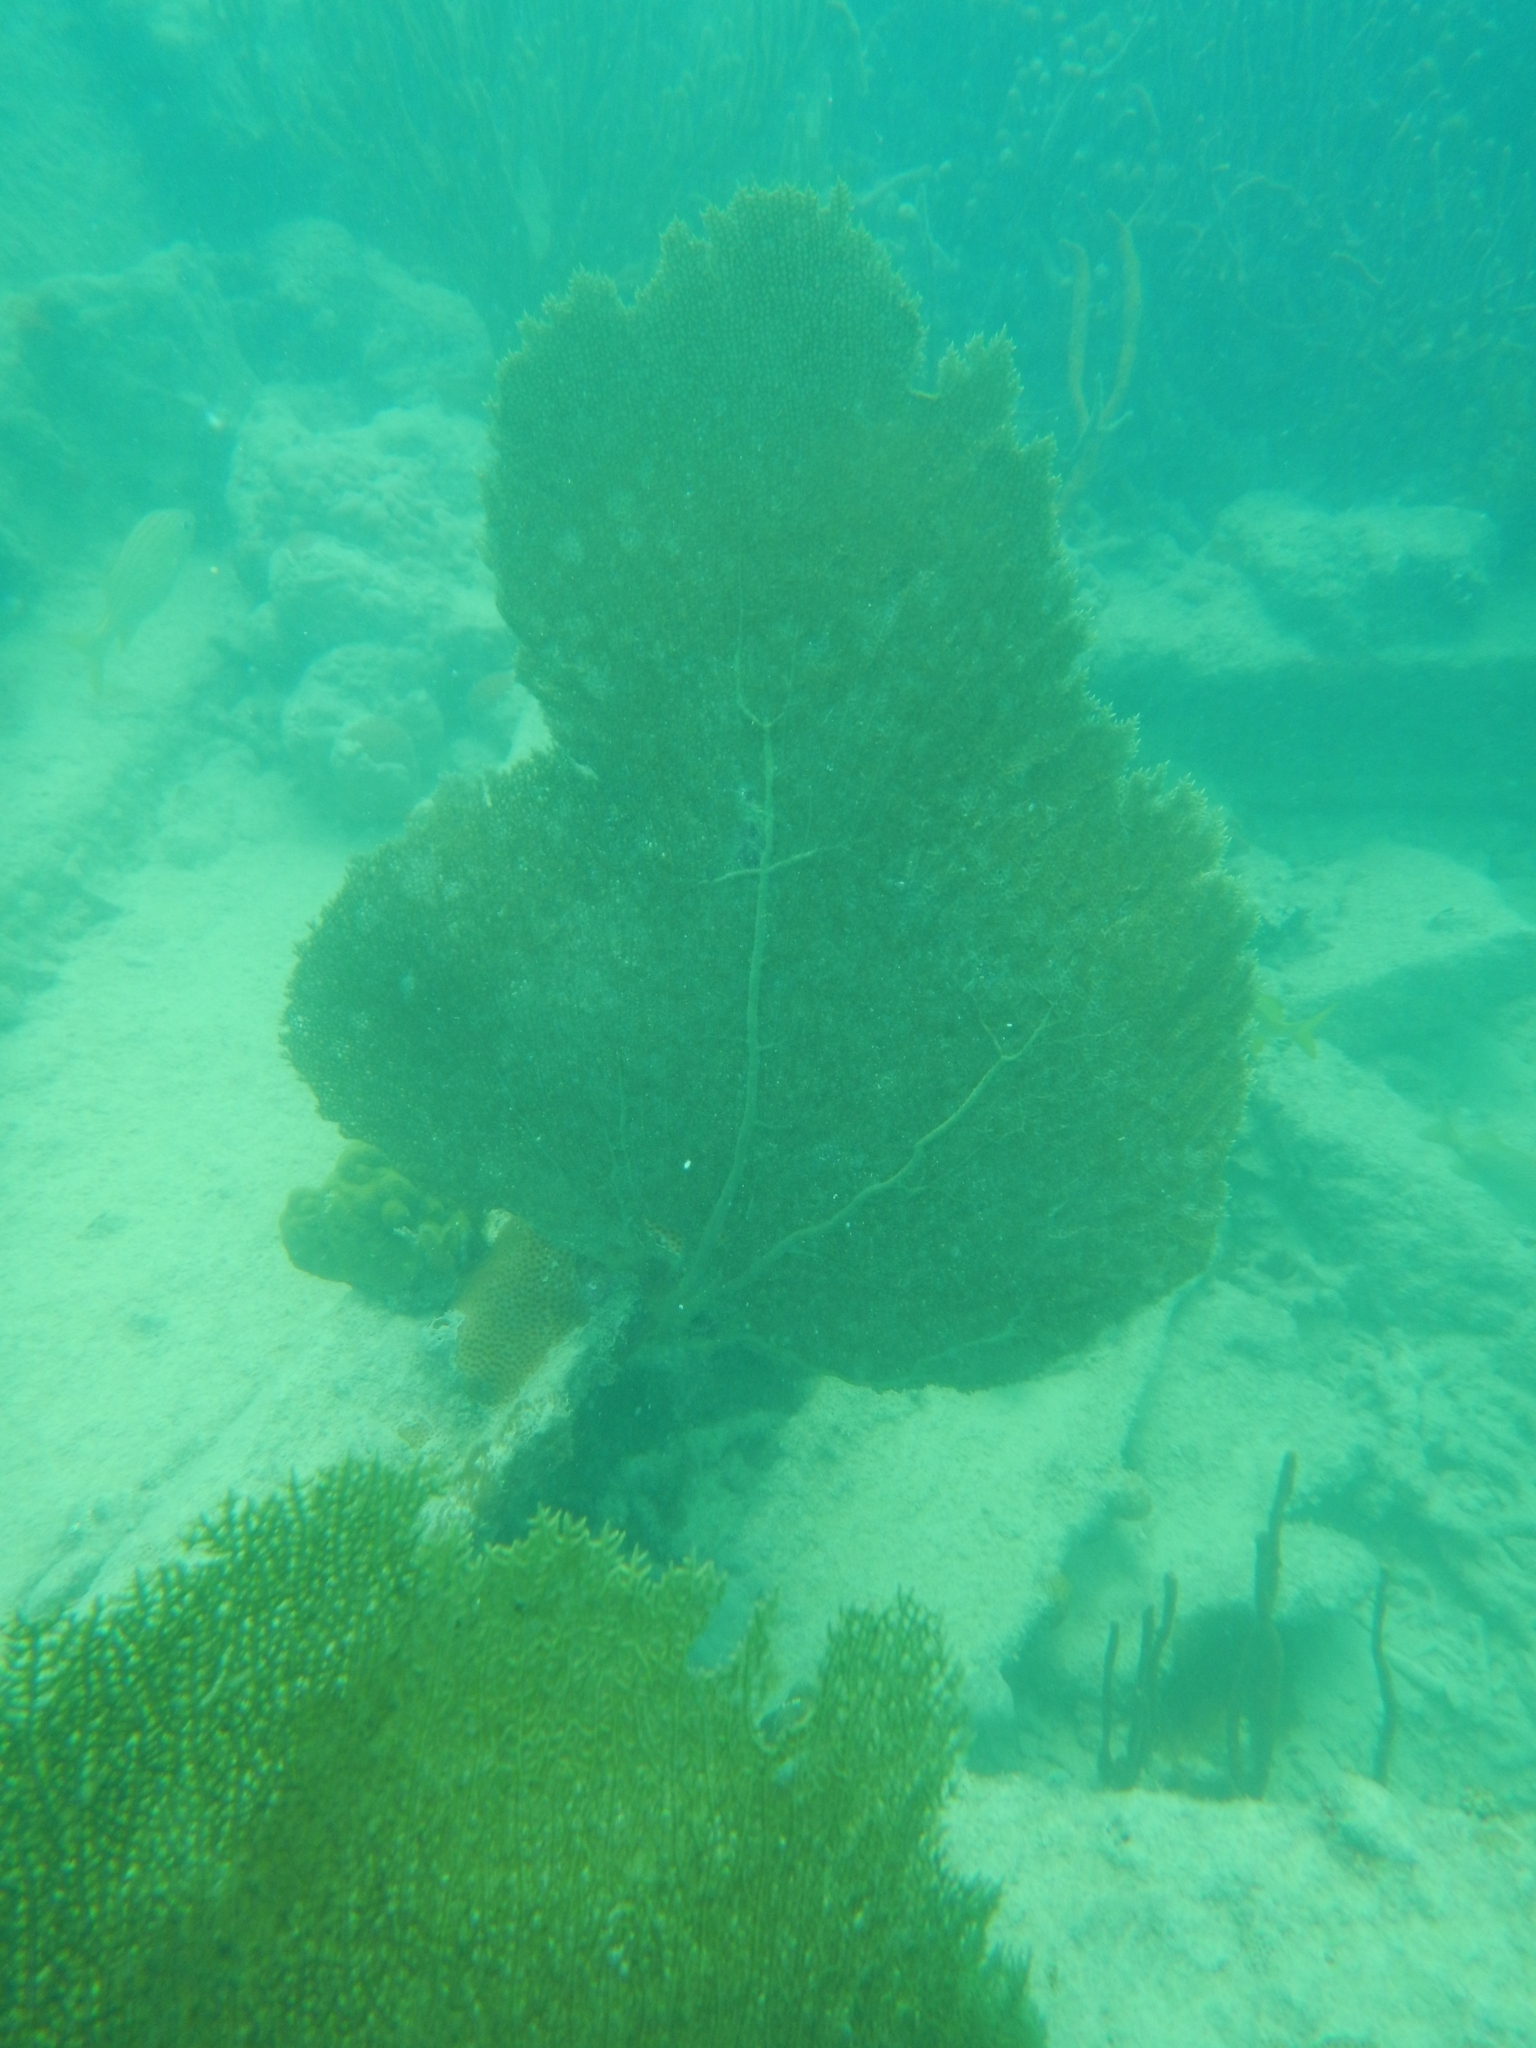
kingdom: Animalia
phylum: Cnidaria
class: Anthozoa
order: Malacalcyonacea
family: Gorgoniidae
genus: Gorgonia
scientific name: Gorgonia ventalina
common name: Common sea fan
